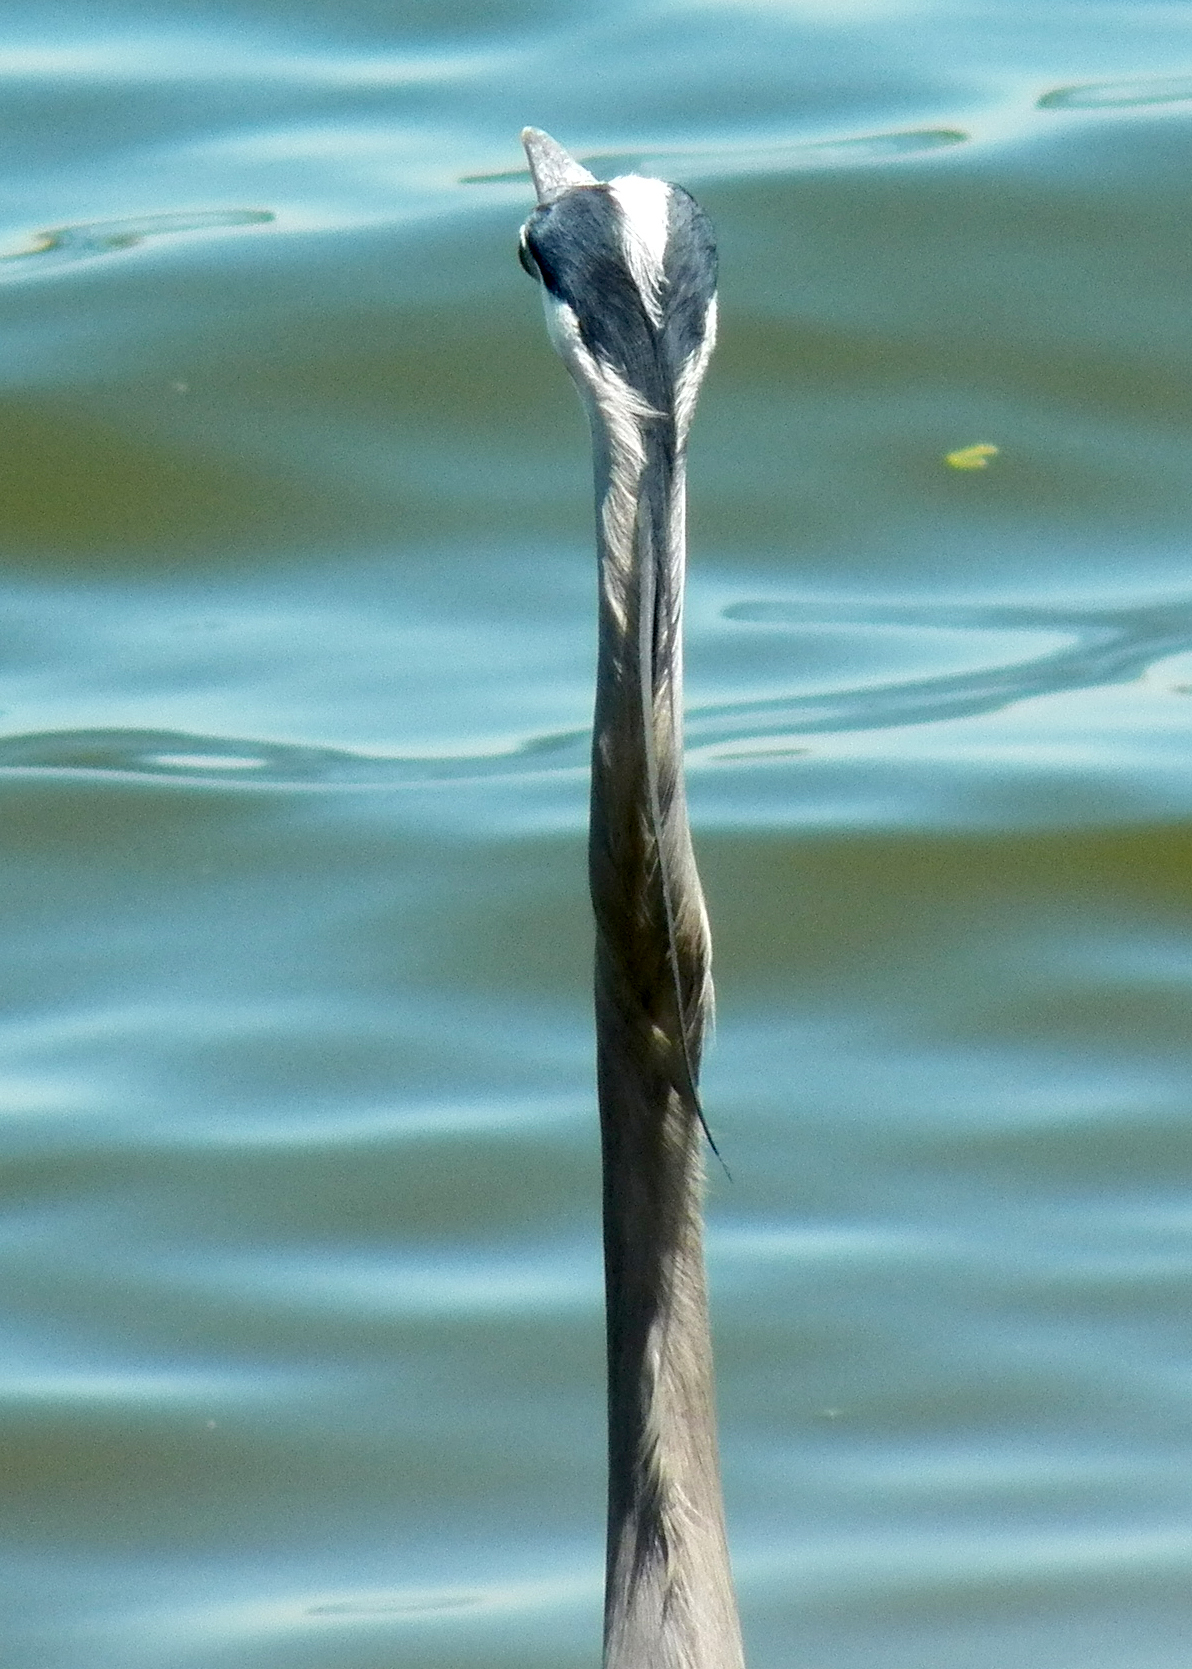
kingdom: Animalia
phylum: Chordata
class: Aves
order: Pelecaniformes
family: Ardeidae
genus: Ardea
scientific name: Ardea herodias
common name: Great blue heron
